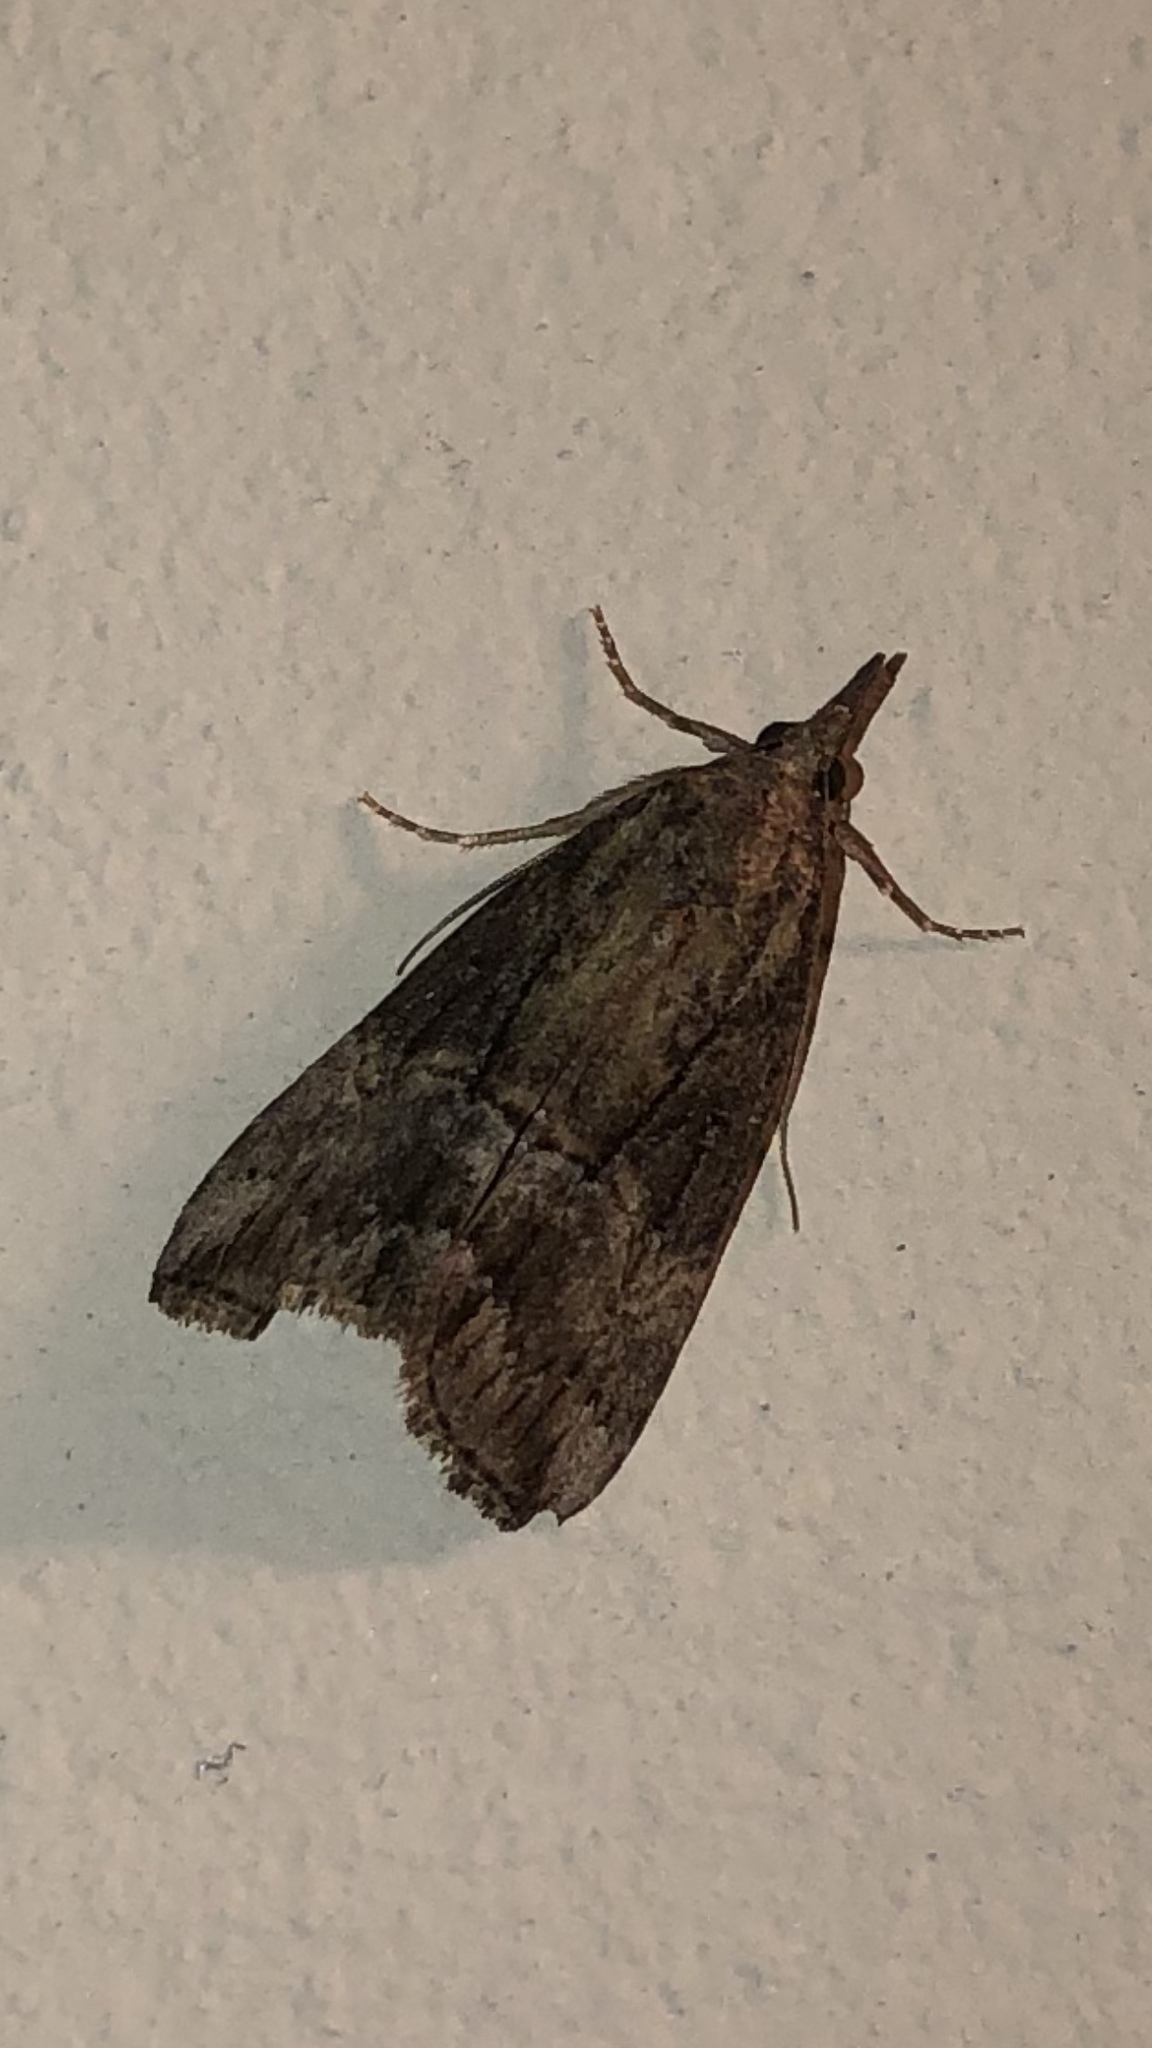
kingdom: Animalia
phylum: Arthropoda
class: Insecta
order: Lepidoptera
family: Erebidae
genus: Hypena
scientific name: Hypena scabra
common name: Green cloverworm
